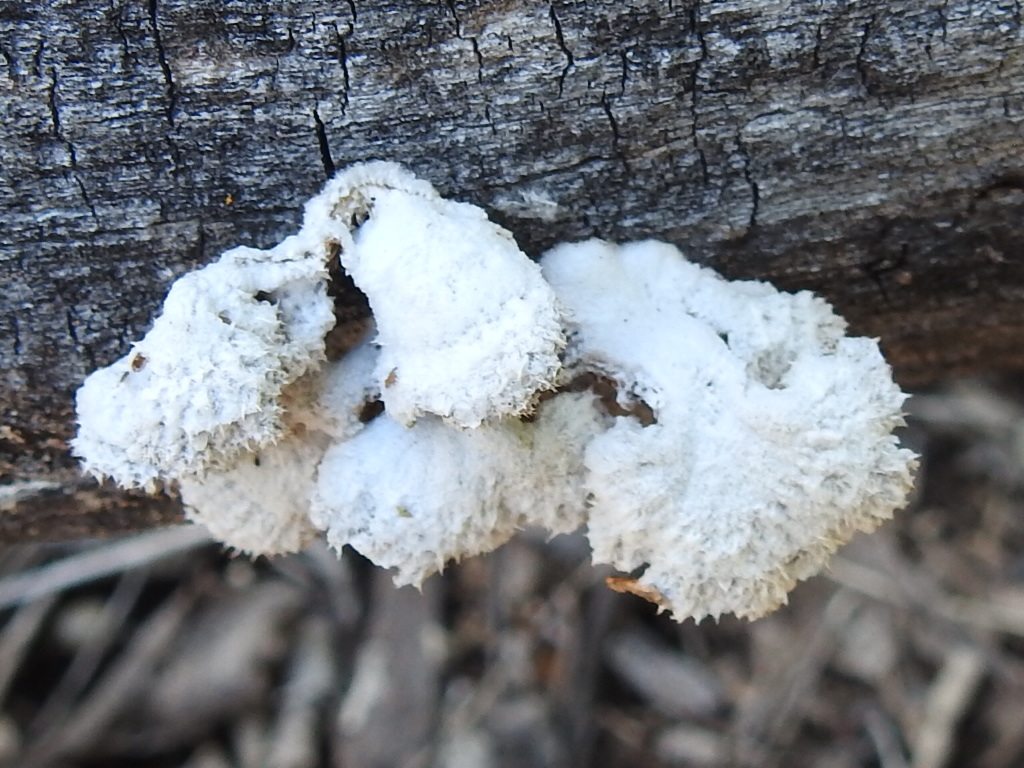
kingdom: Fungi
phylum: Basidiomycota
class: Agaricomycetes
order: Agaricales
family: Schizophyllaceae
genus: Schizophyllum
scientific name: Schizophyllum commune
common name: Common porecrust
